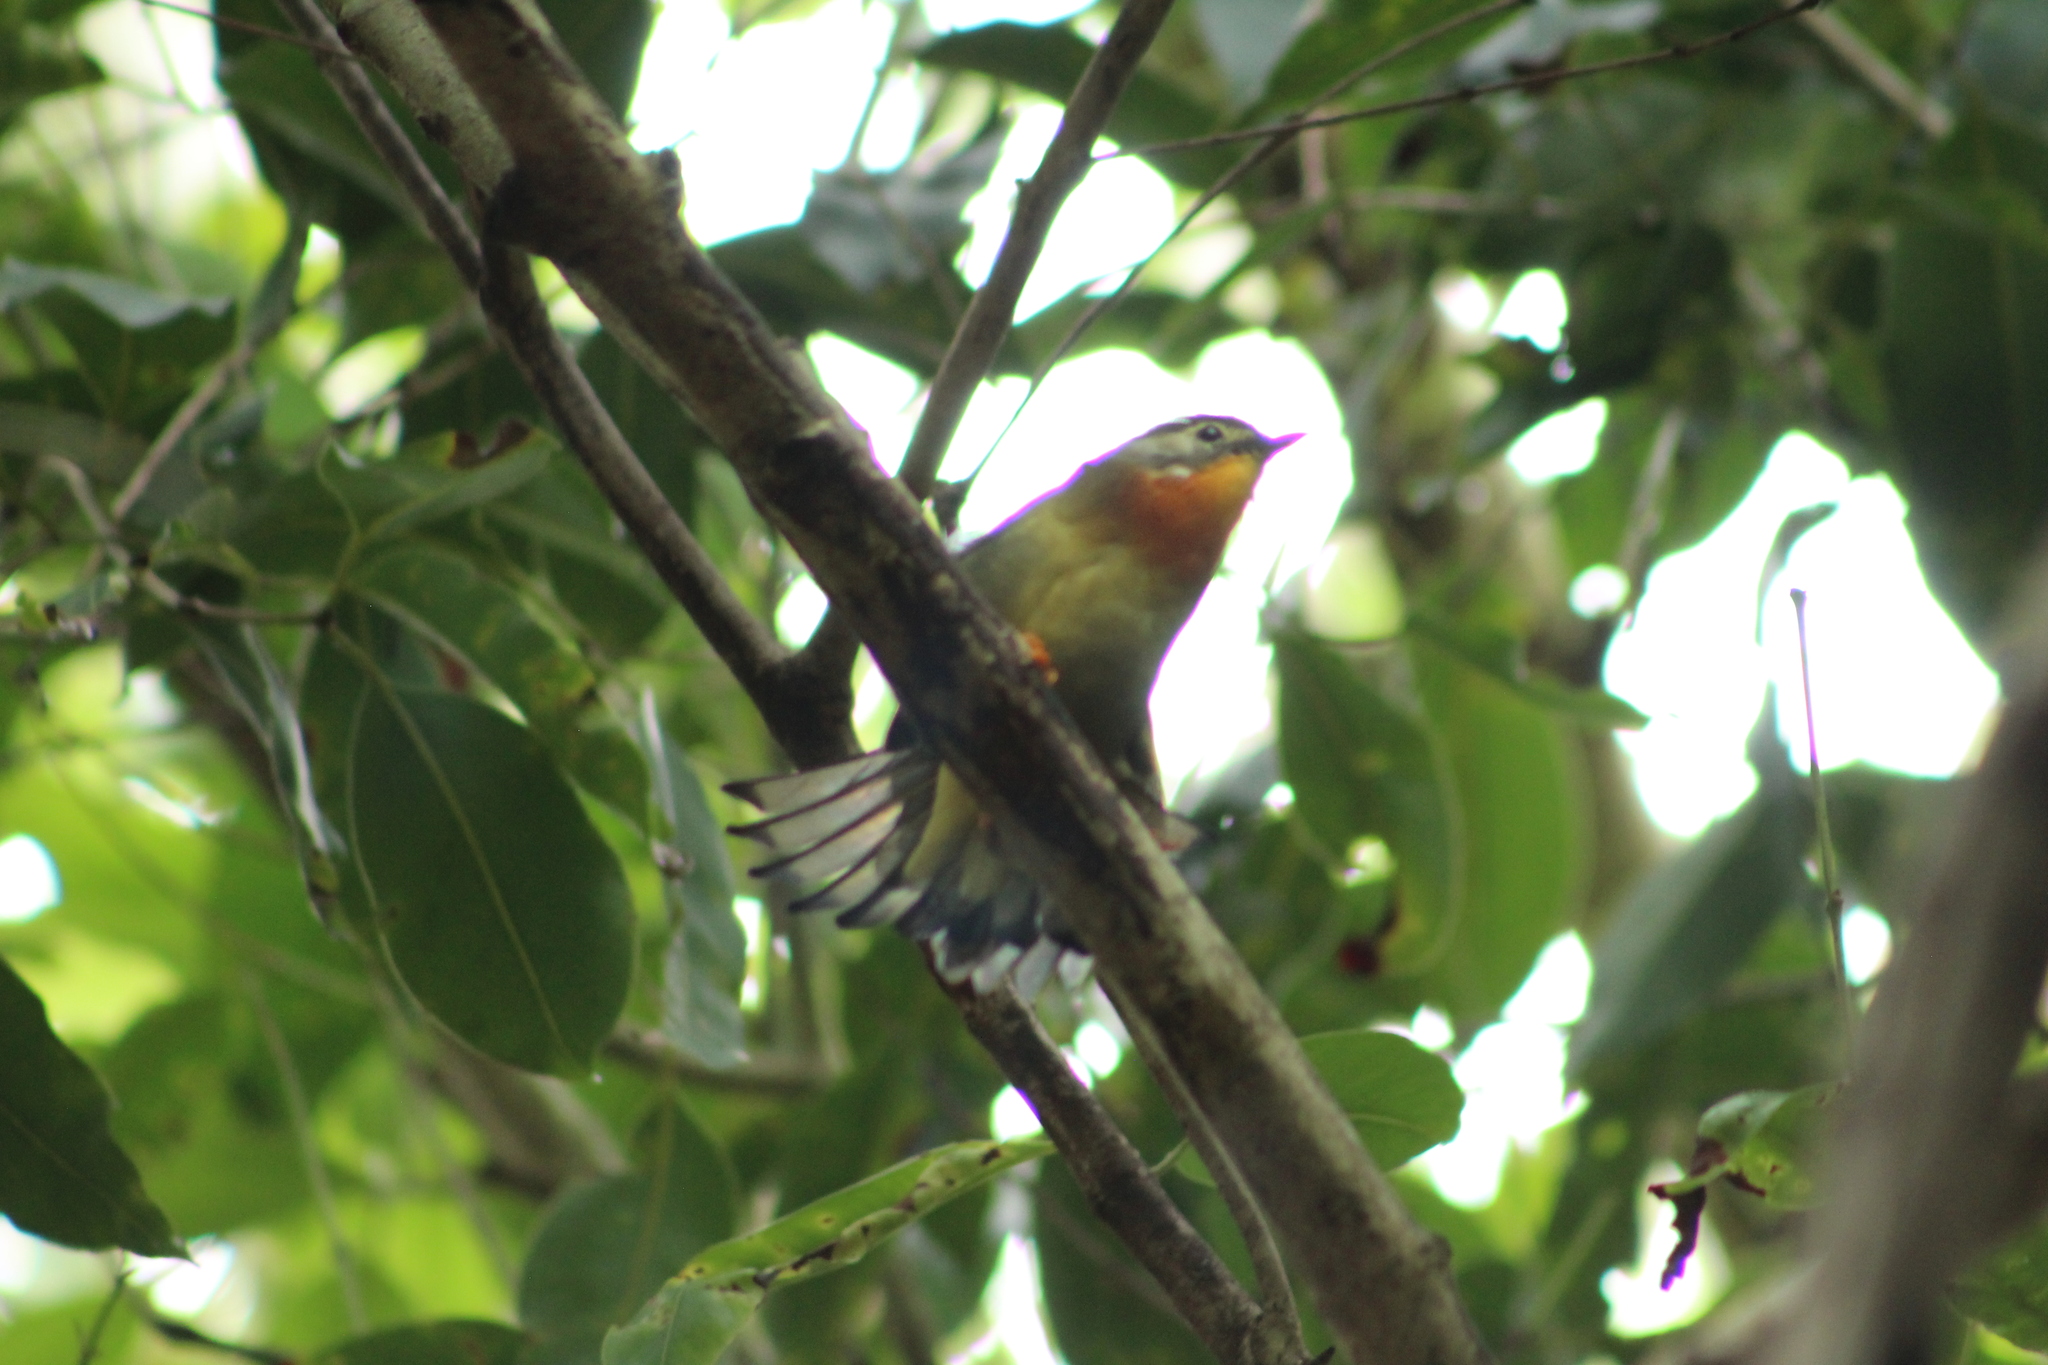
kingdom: Animalia
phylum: Chordata
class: Aves
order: Passeriformes
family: Leiothrichidae
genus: Leiothrix
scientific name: Leiothrix lutea
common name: Red-billed leiothrix
